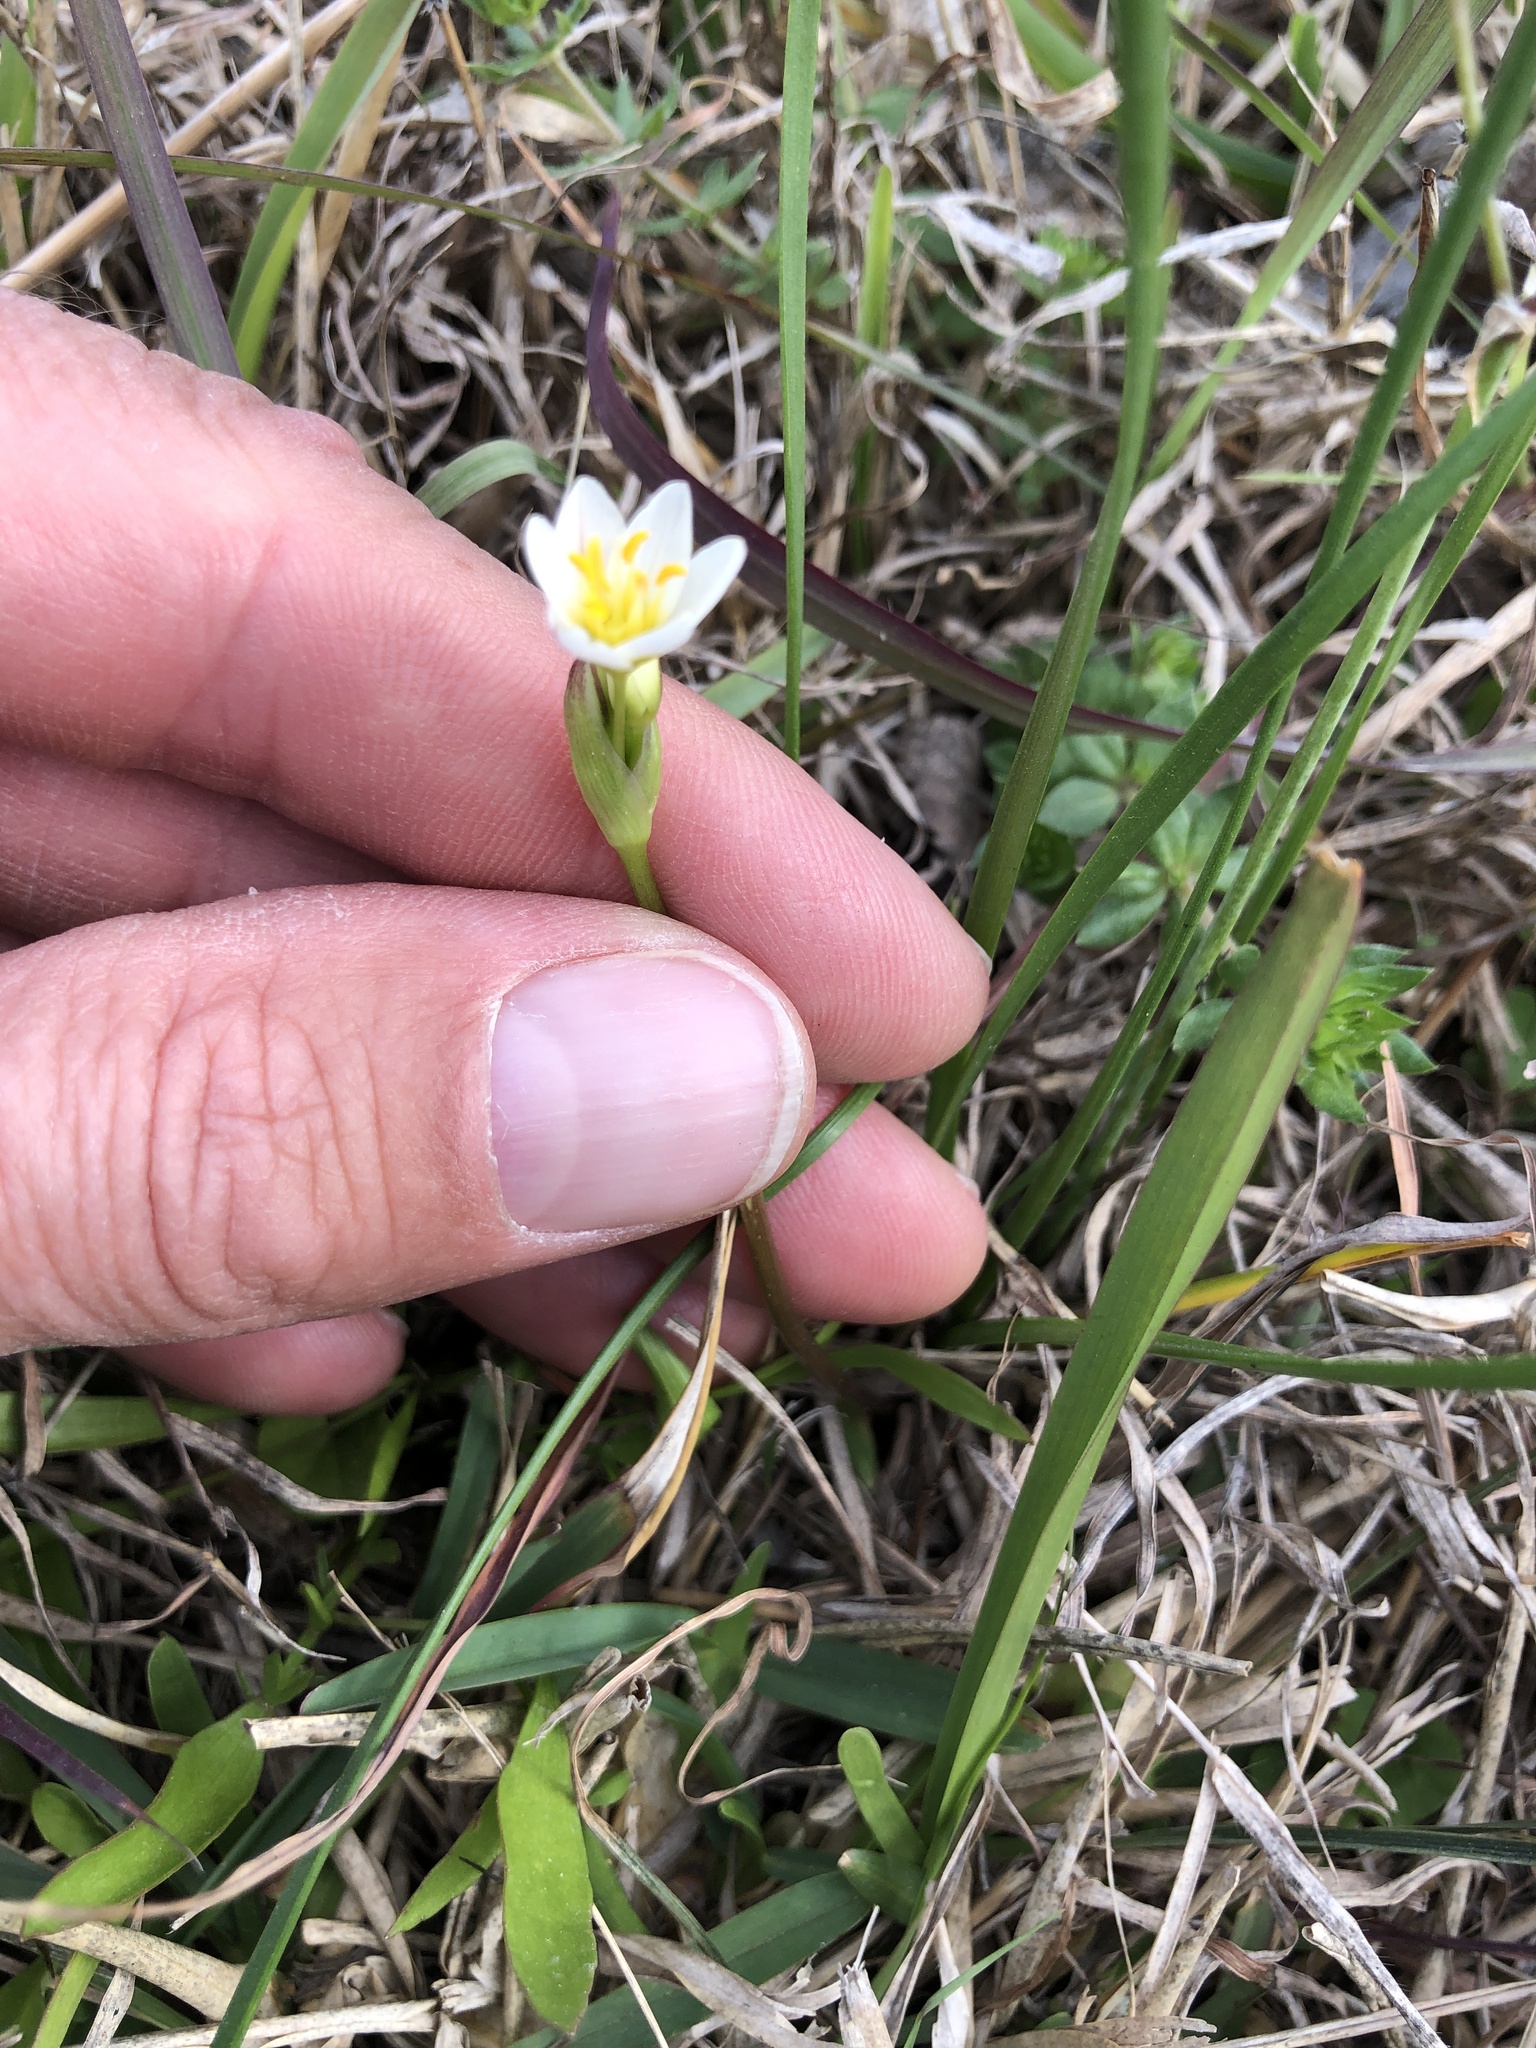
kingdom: Plantae
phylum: Tracheophyta
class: Liliopsida
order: Asparagales
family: Amaryllidaceae
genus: Nothoscordum
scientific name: Nothoscordum bivalve
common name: Crow-poison
